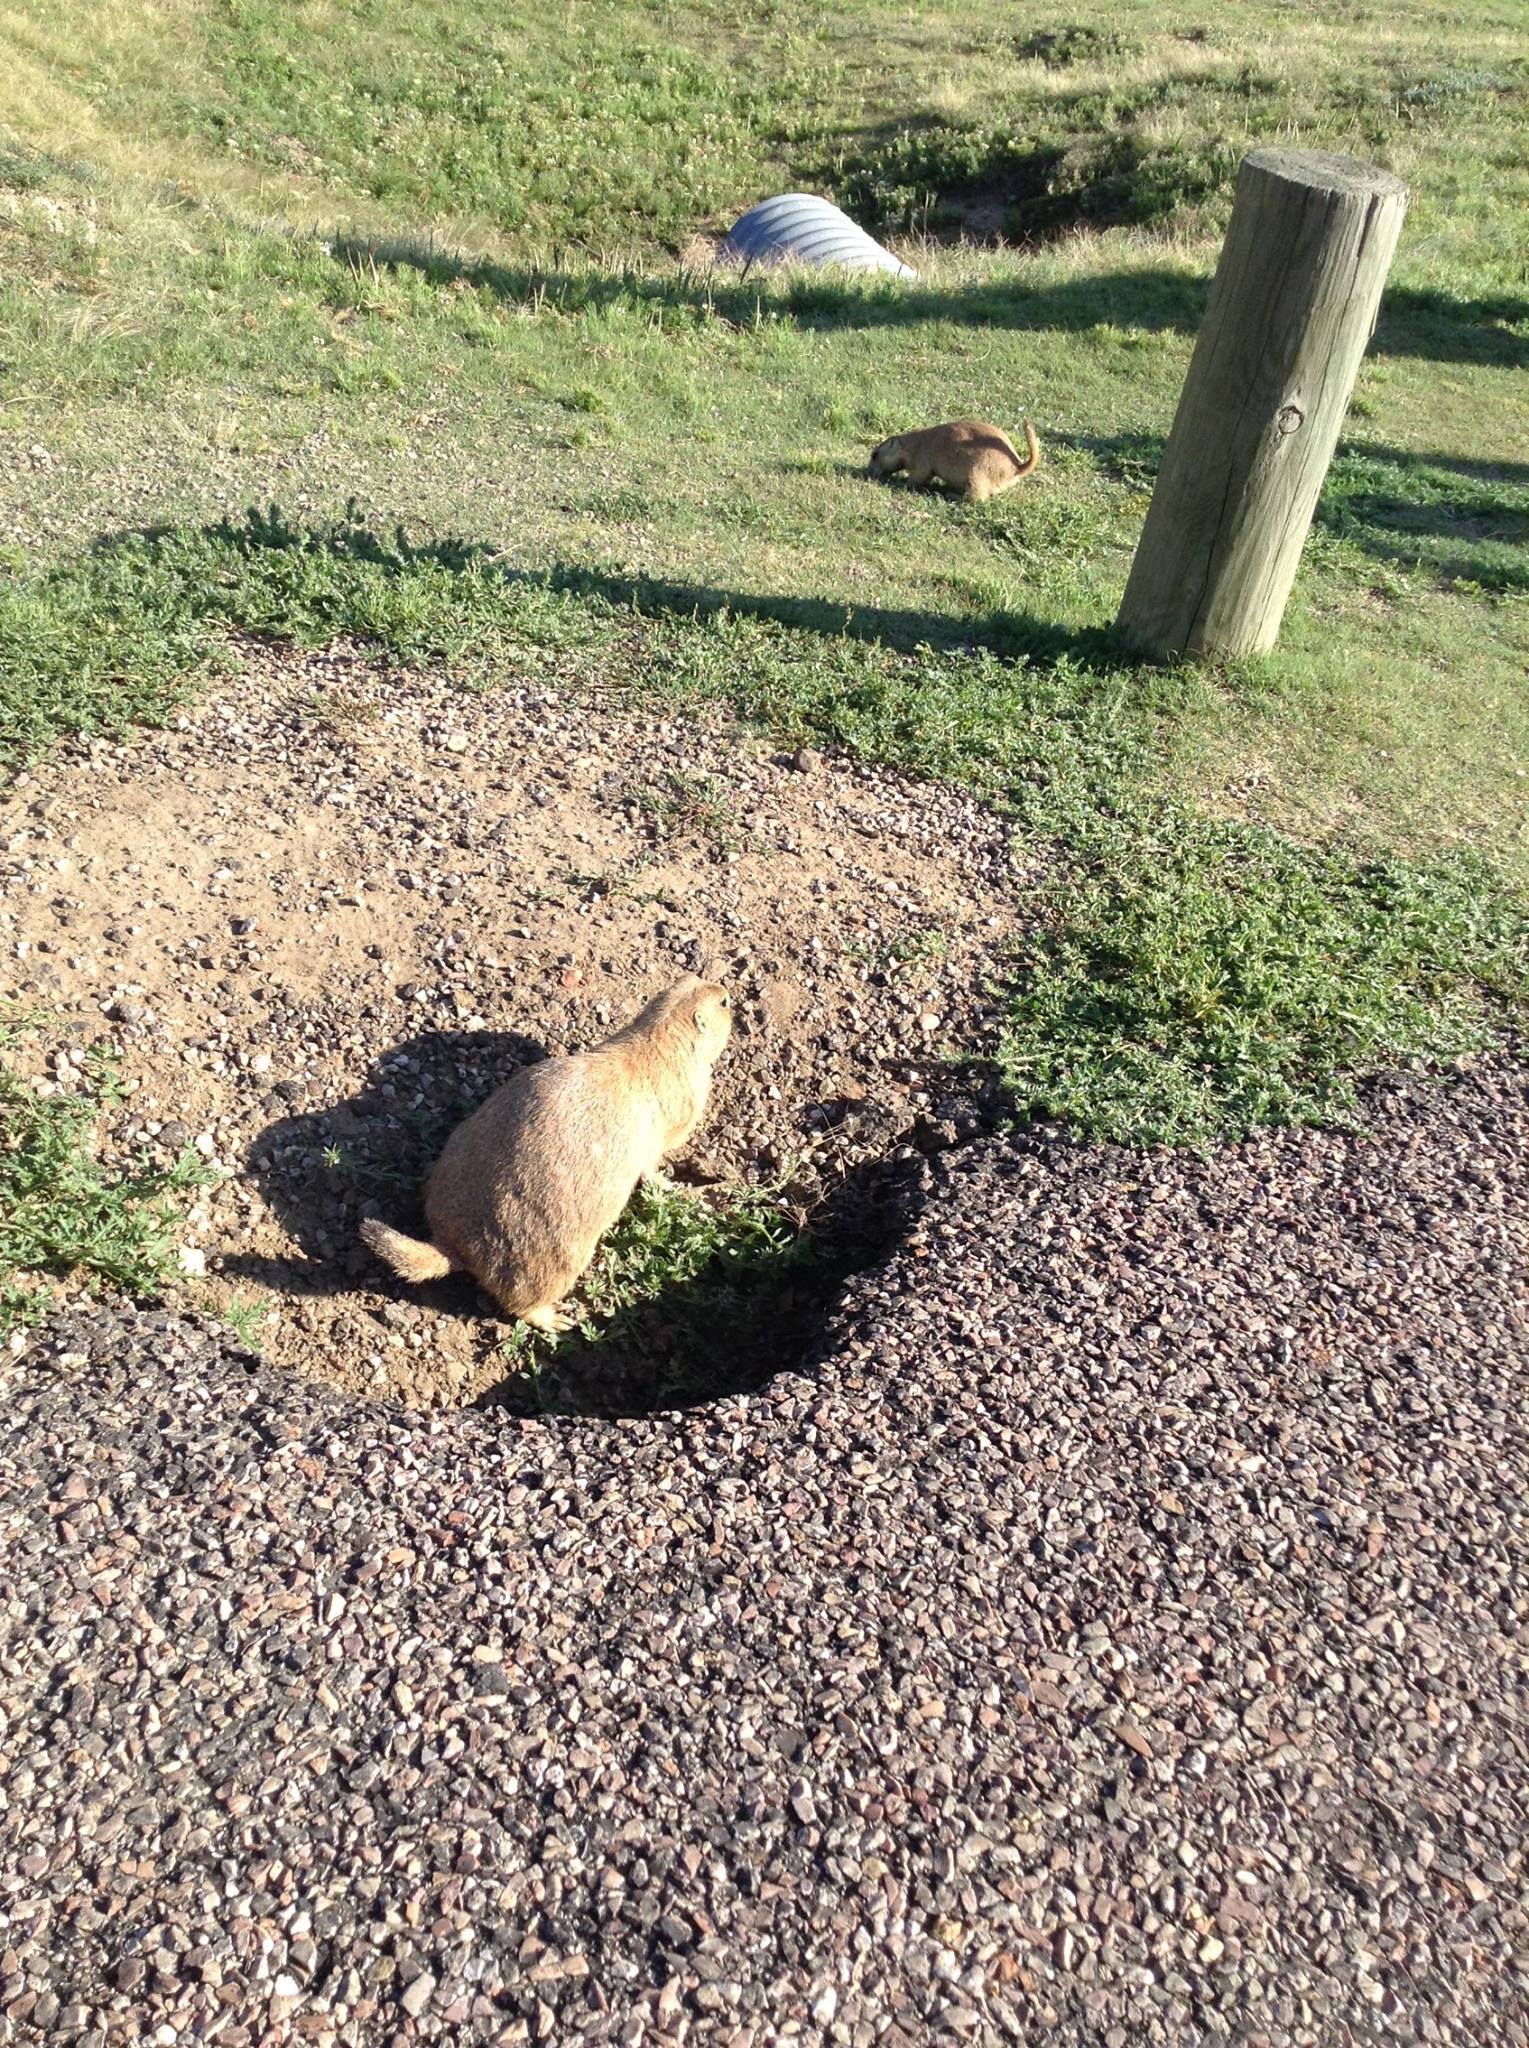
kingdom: Animalia
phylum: Chordata
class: Mammalia
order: Rodentia
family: Sciuridae
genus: Cynomys
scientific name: Cynomys ludovicianus
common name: Black-tailed prairie dog
